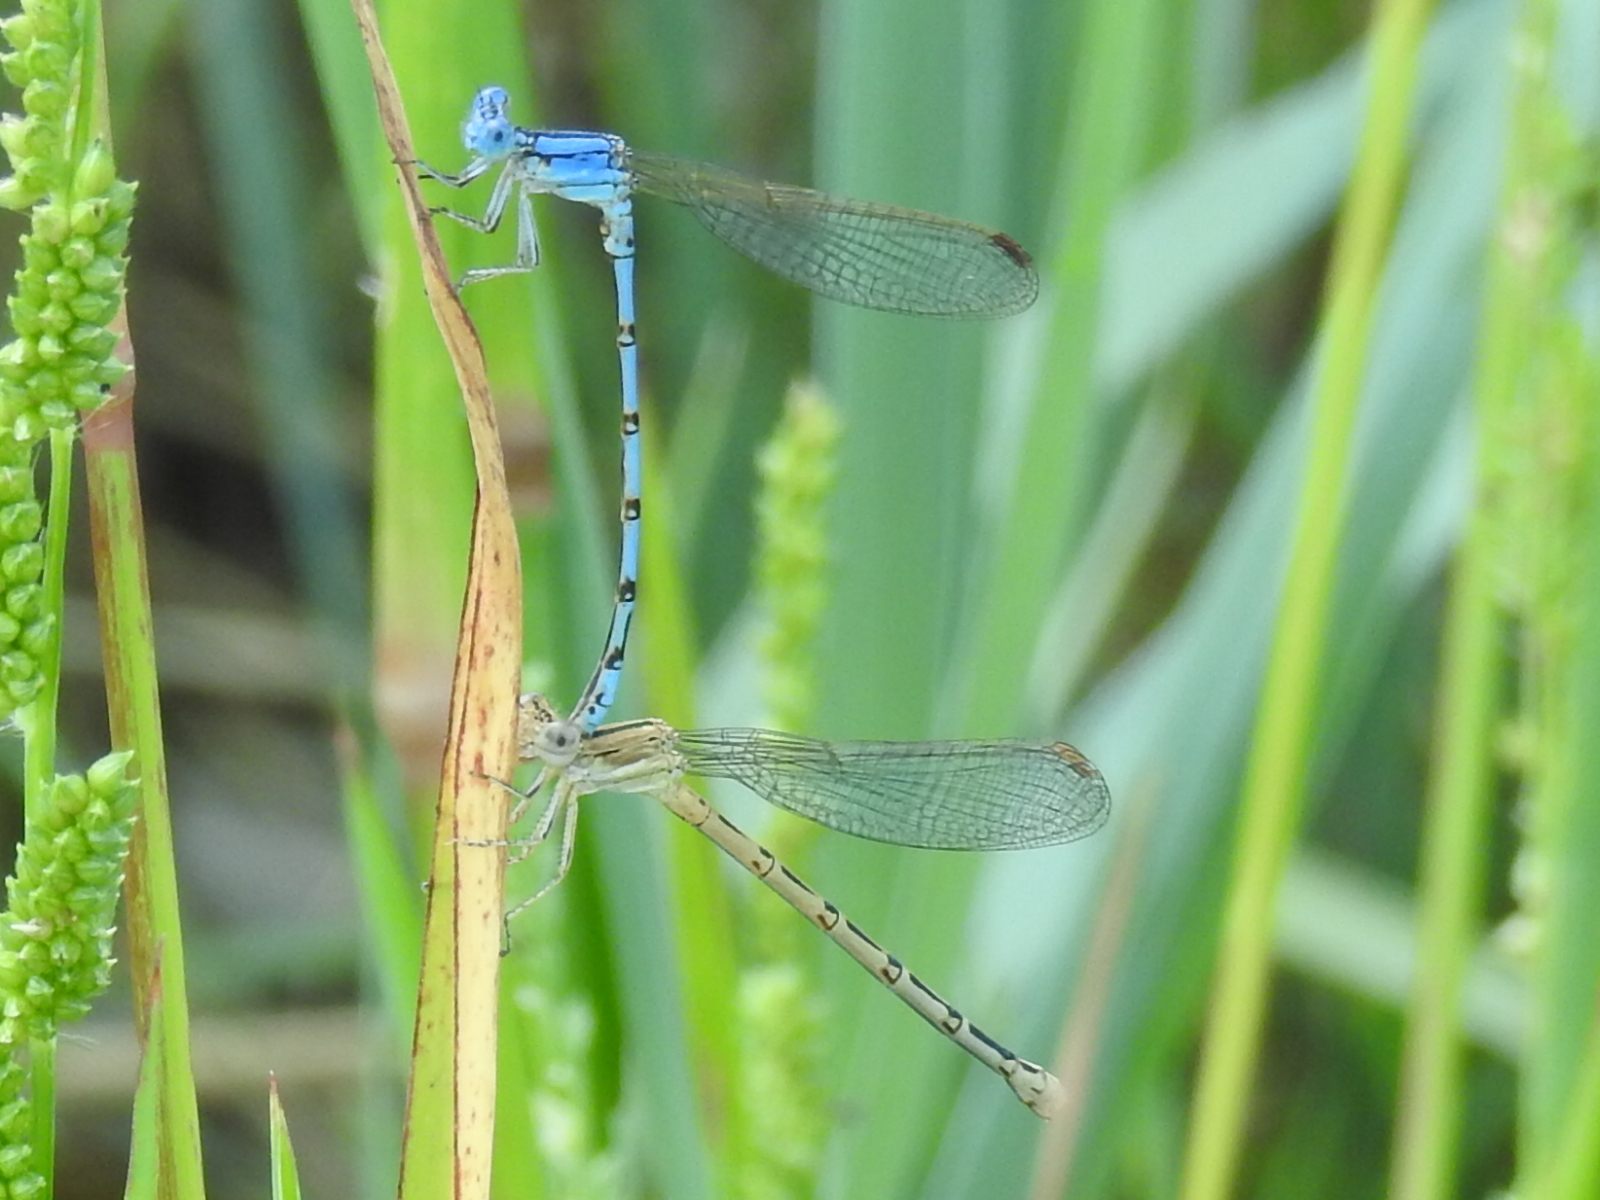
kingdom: Animalia
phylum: Arthropoda
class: Insecta
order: Odonata
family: Coenagrionidae
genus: Argia
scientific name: Argia nahuana
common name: Aztec dancer
